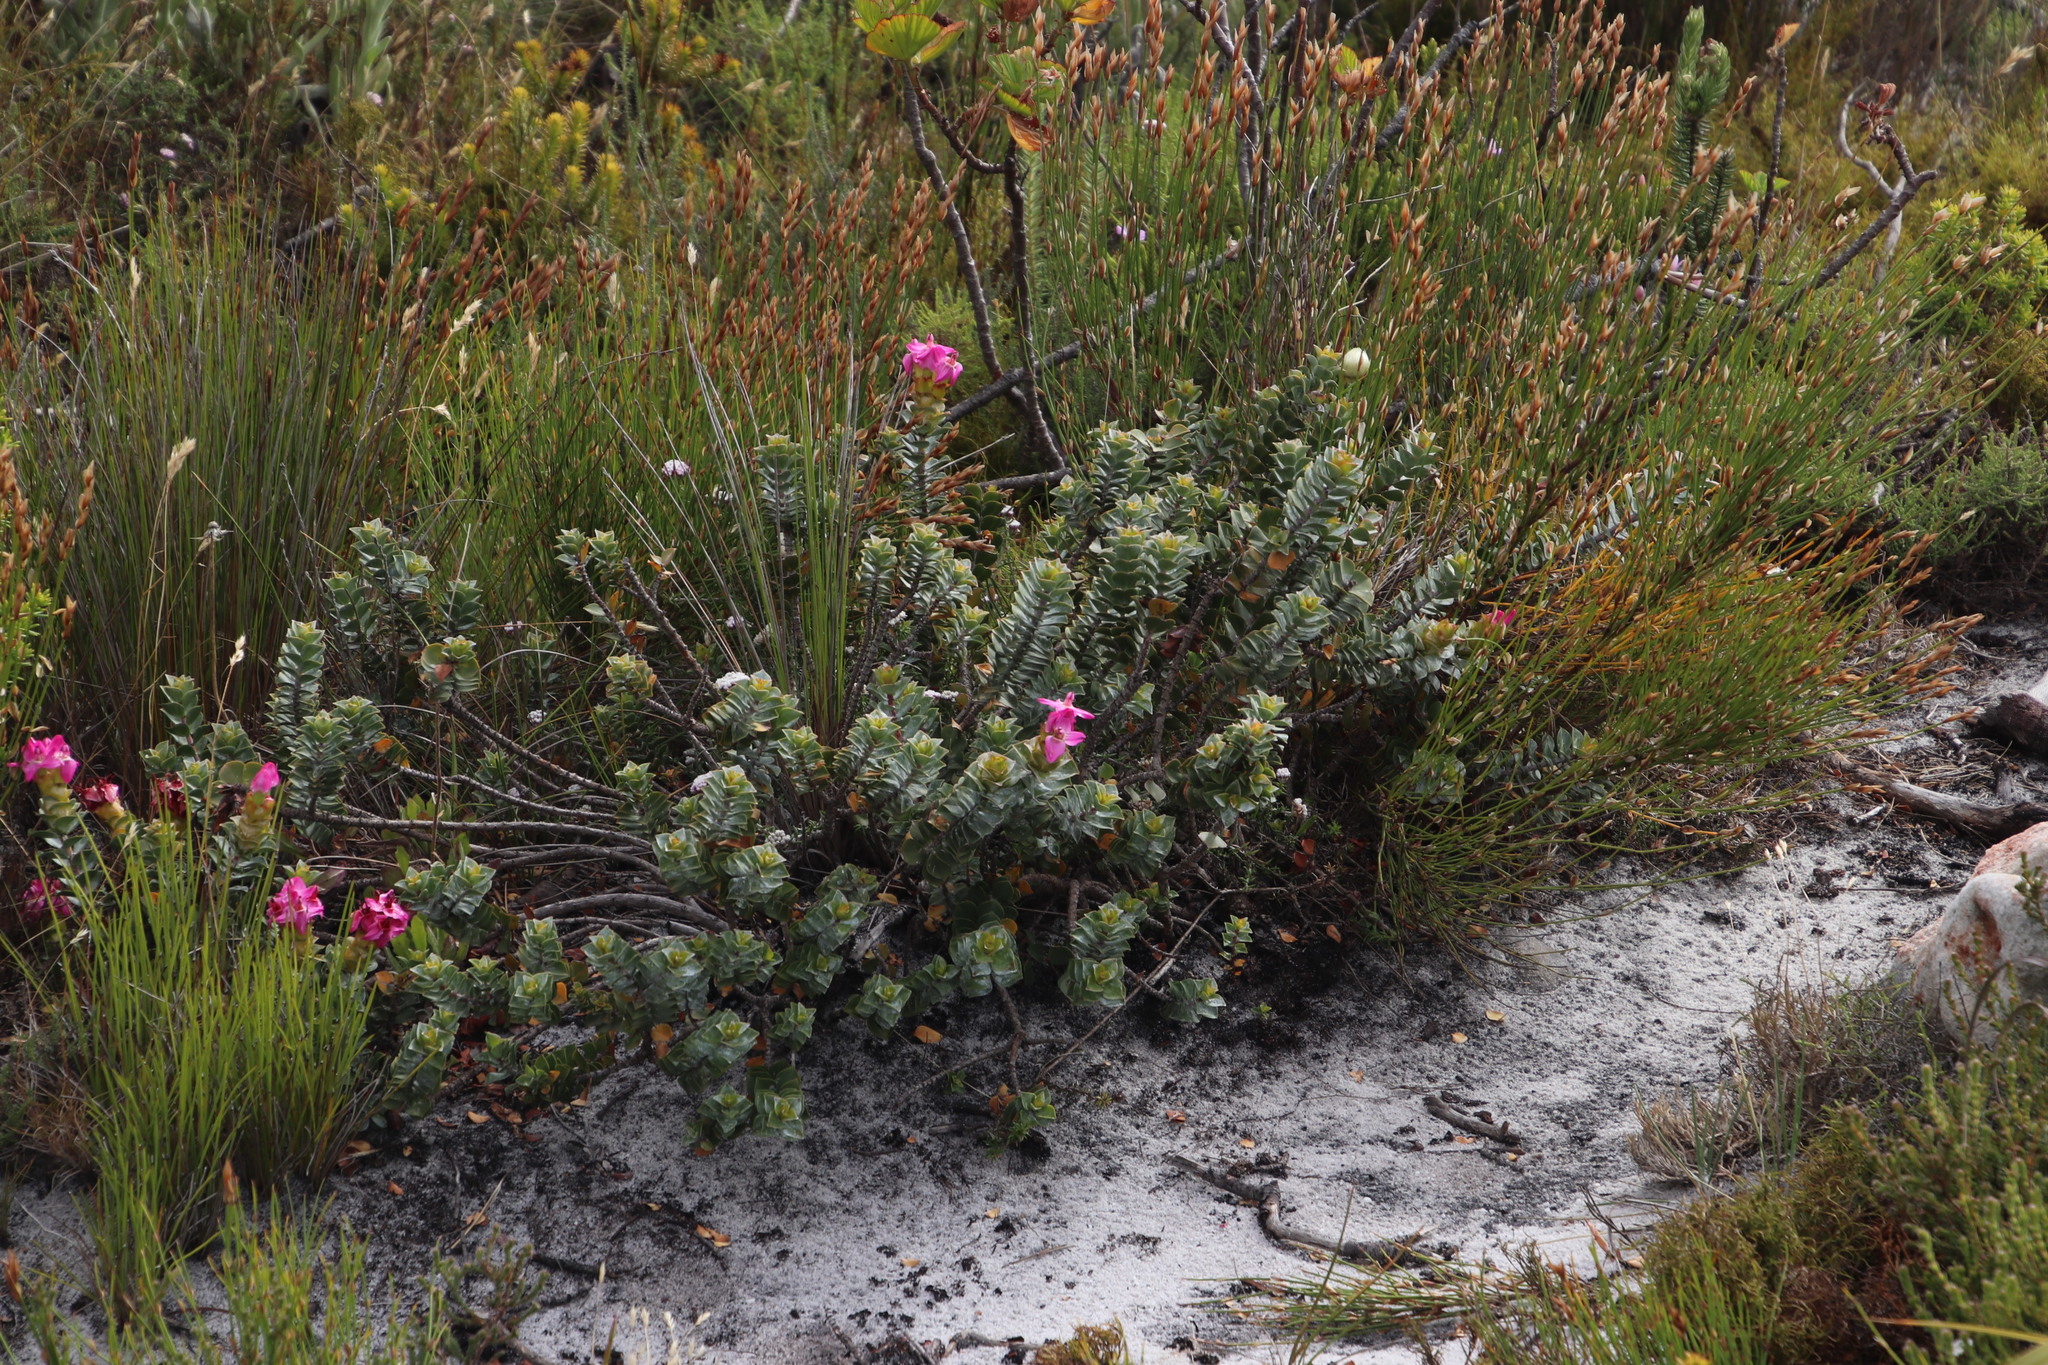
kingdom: Plantae
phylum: Tracheophyta
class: Magnoliopsida
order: Myrtales
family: Penaeaceae
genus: Saltera
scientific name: Saltera sarcocolla
